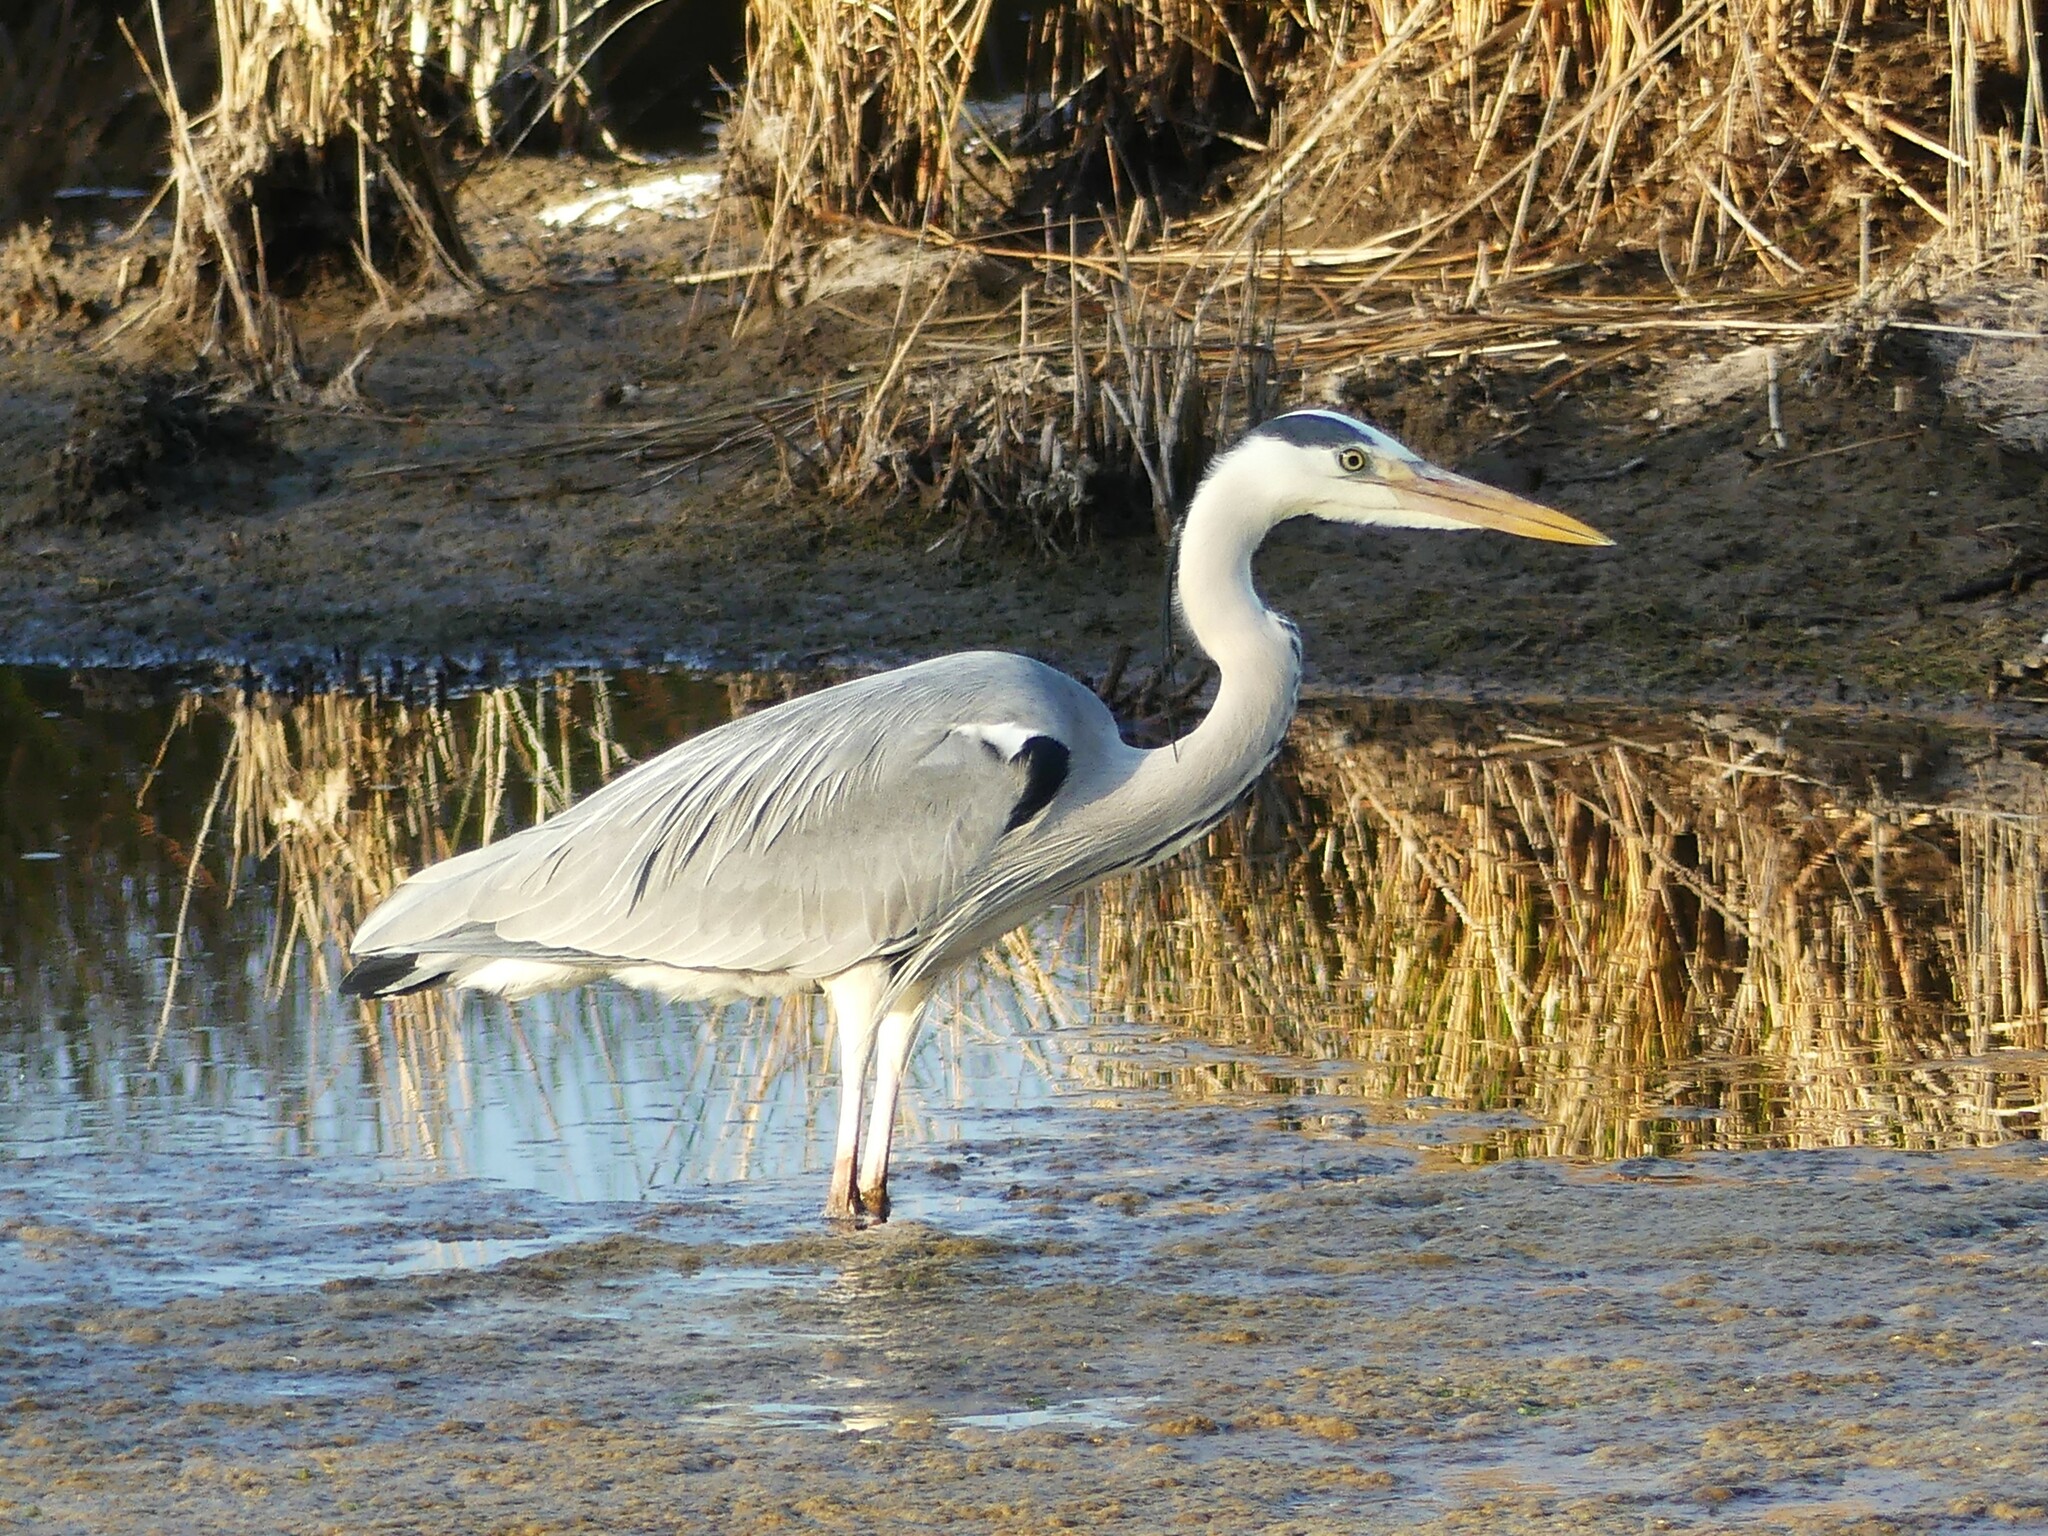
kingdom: Animalia
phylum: Chordata
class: Aves
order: Pelecaniformes
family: Ardeidae
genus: Ardea
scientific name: Ardea cinerea
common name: Grey heron
